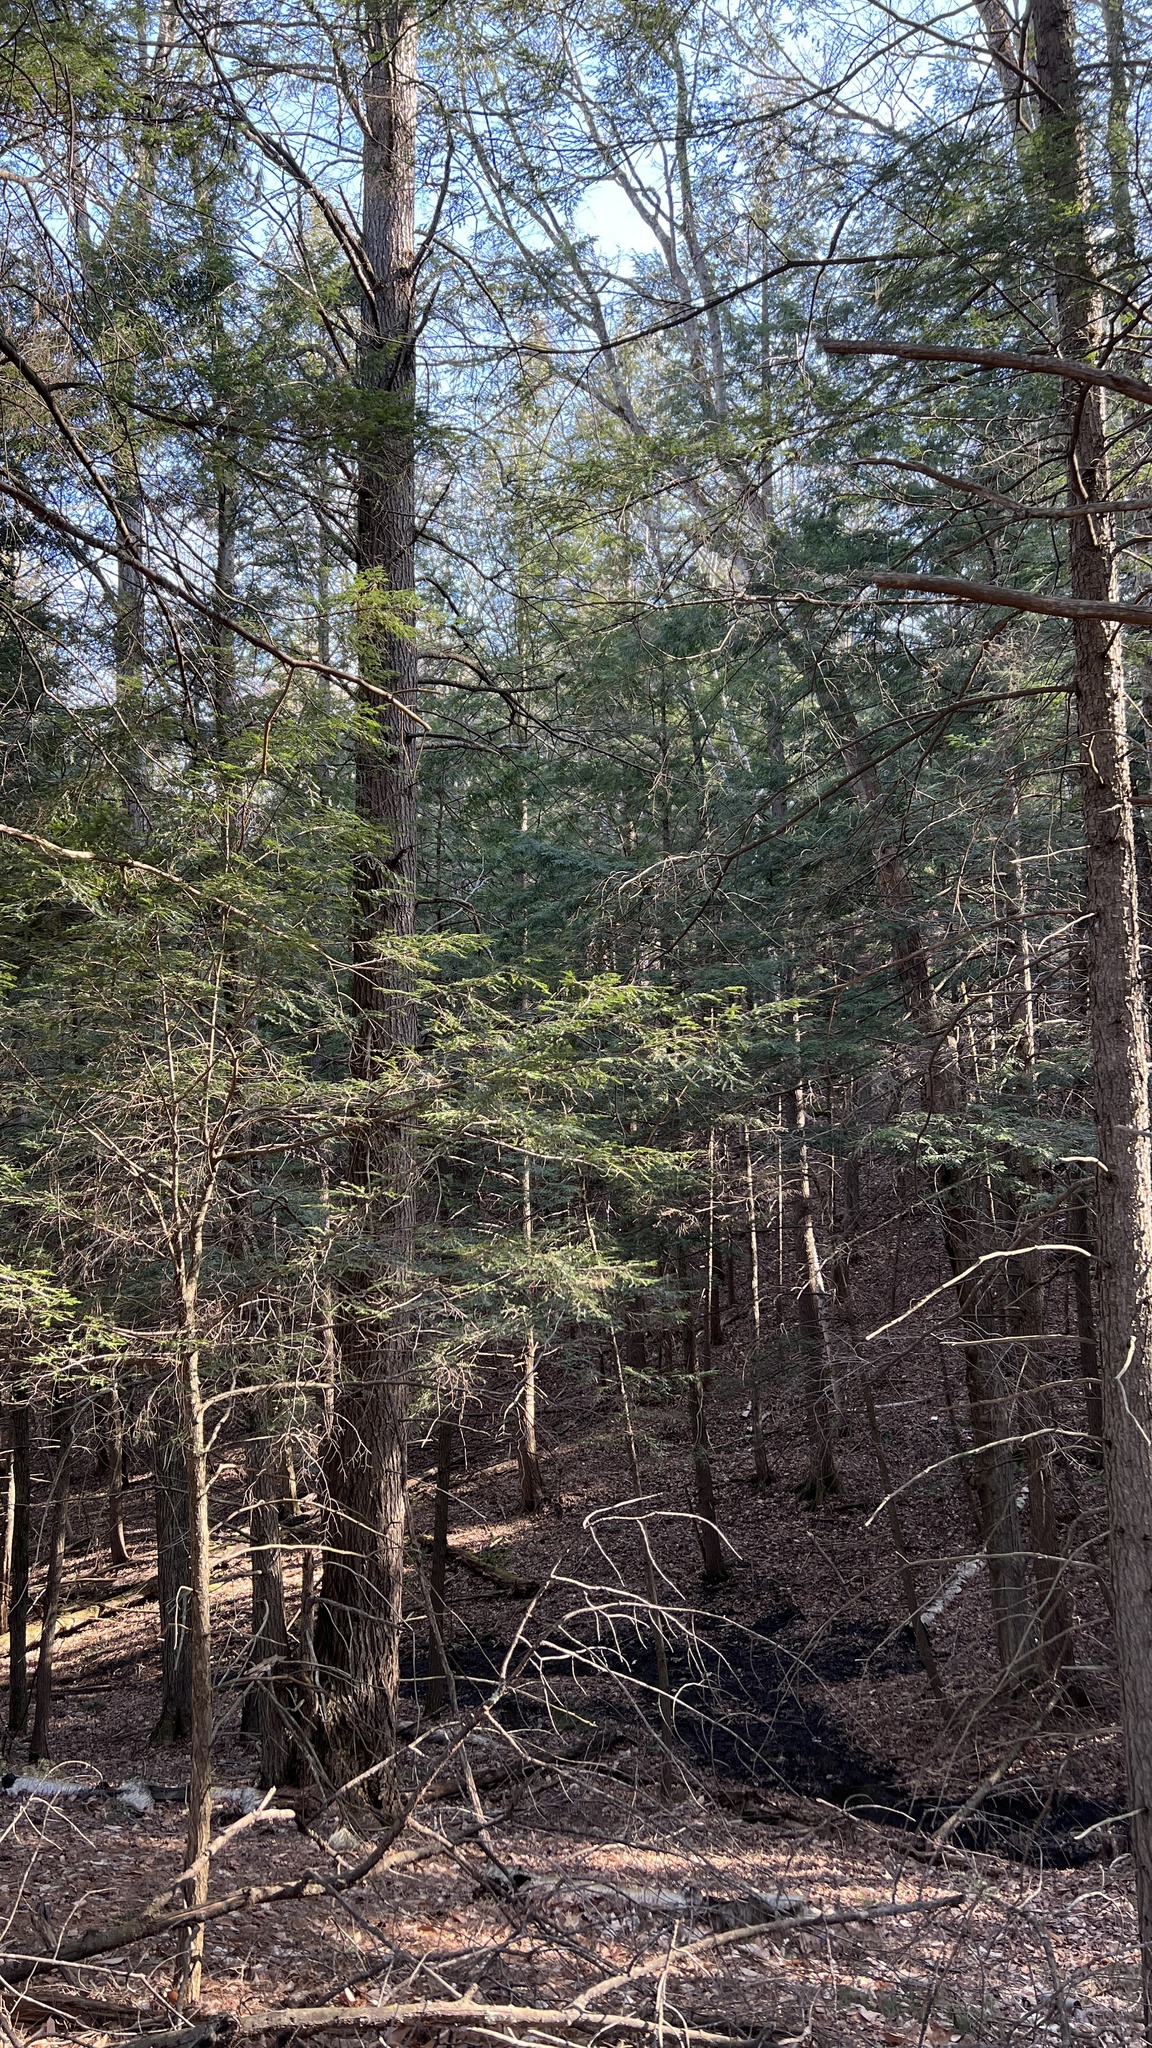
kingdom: Plantae
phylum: Tracheophyta
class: Pinopsida
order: Pinales
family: Pinaceae
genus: Tsuga
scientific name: Tsuga canadensis
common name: Eastern hemlock
